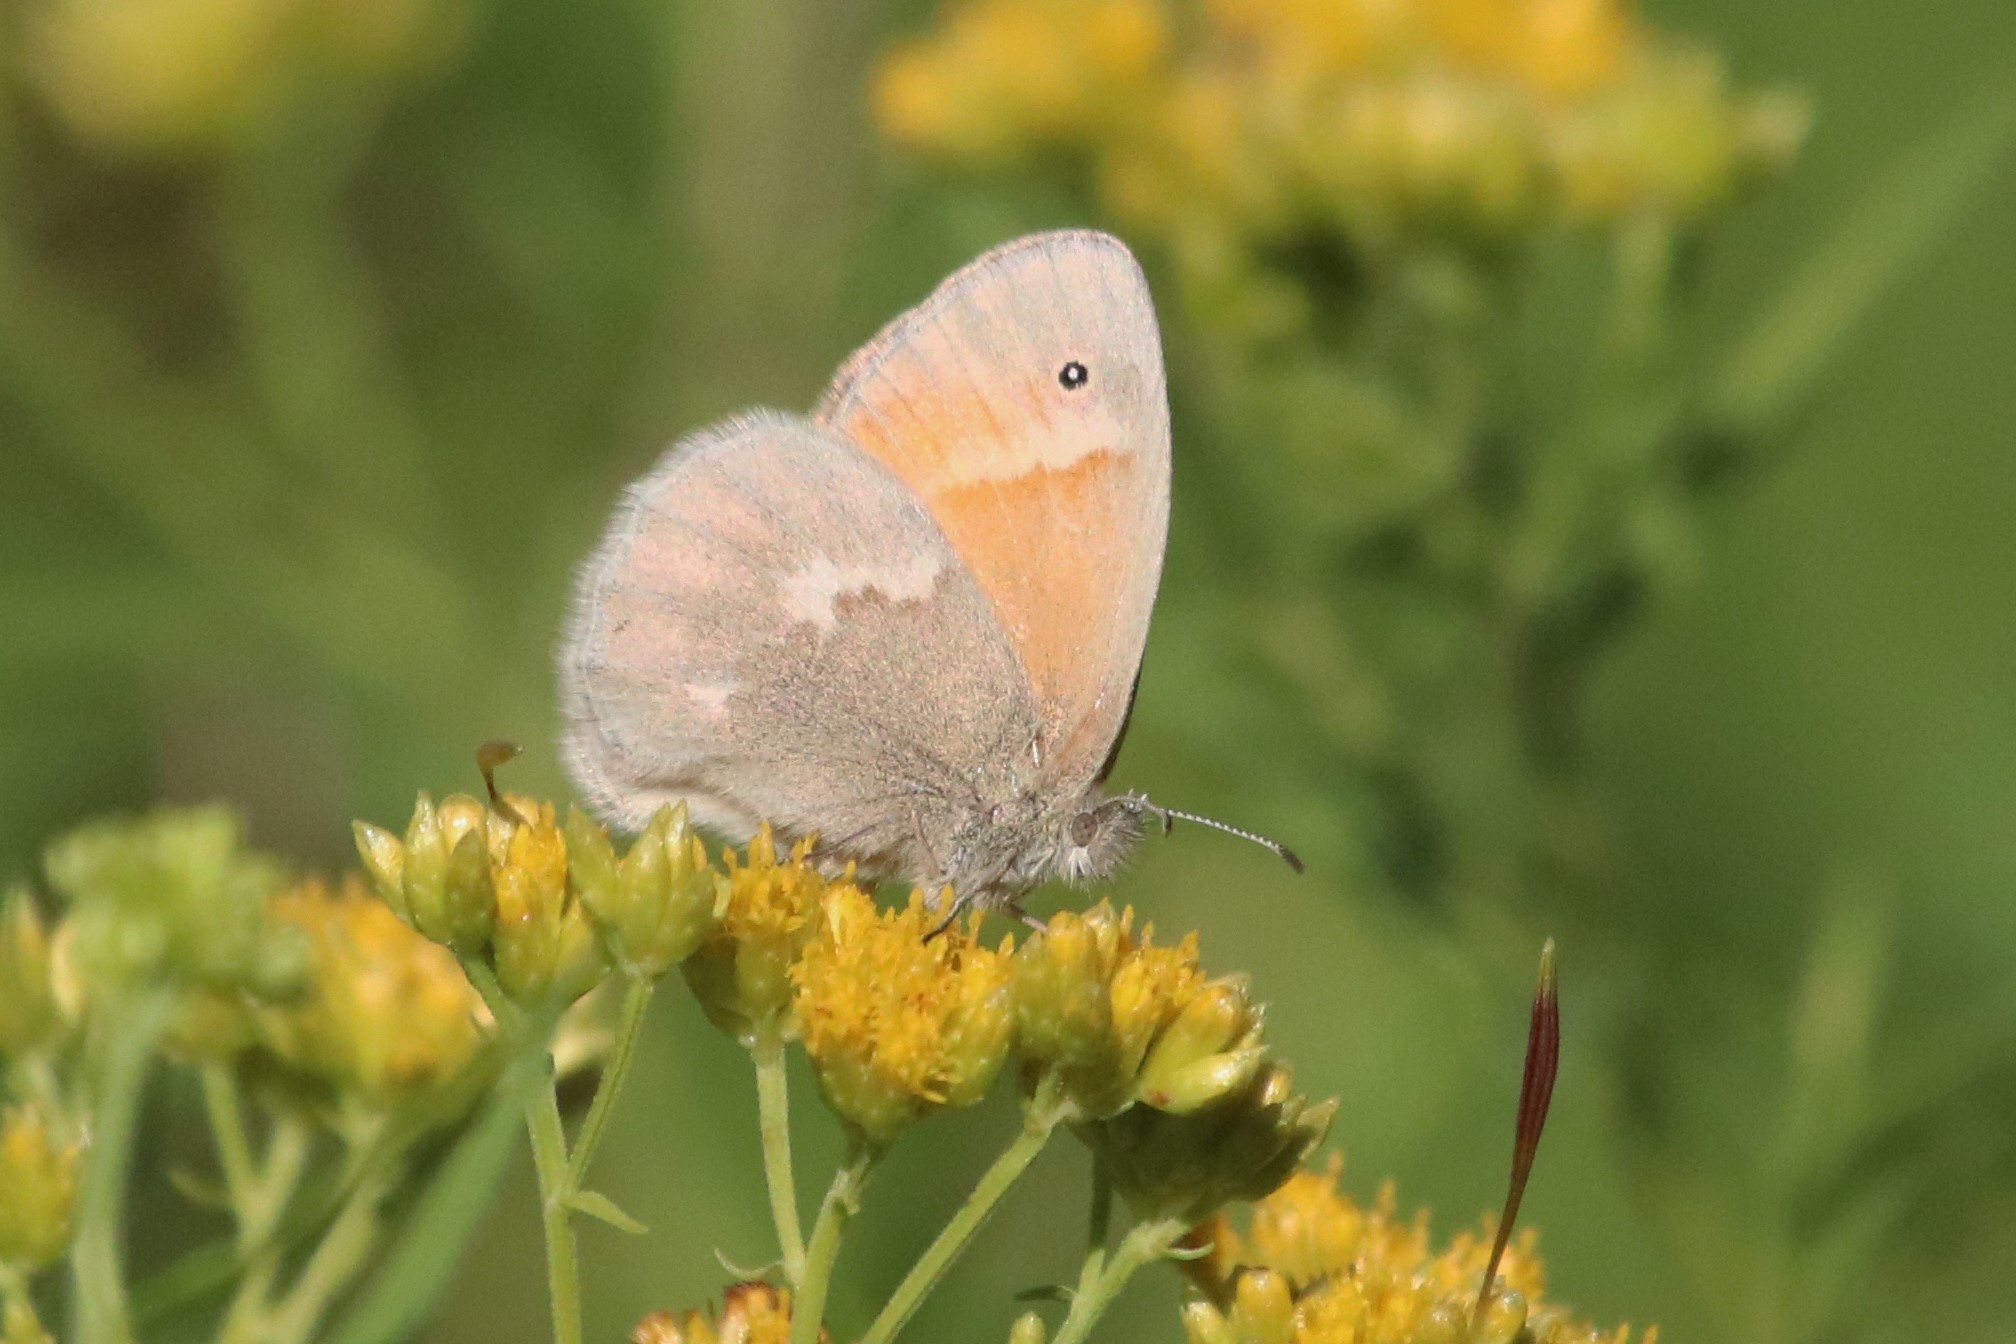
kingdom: Animalia
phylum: Arthropoda
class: Insecta
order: Lepidoptera
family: Nymphalidae
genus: Coenonympha
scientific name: Coenonympha california
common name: Common ringlet
